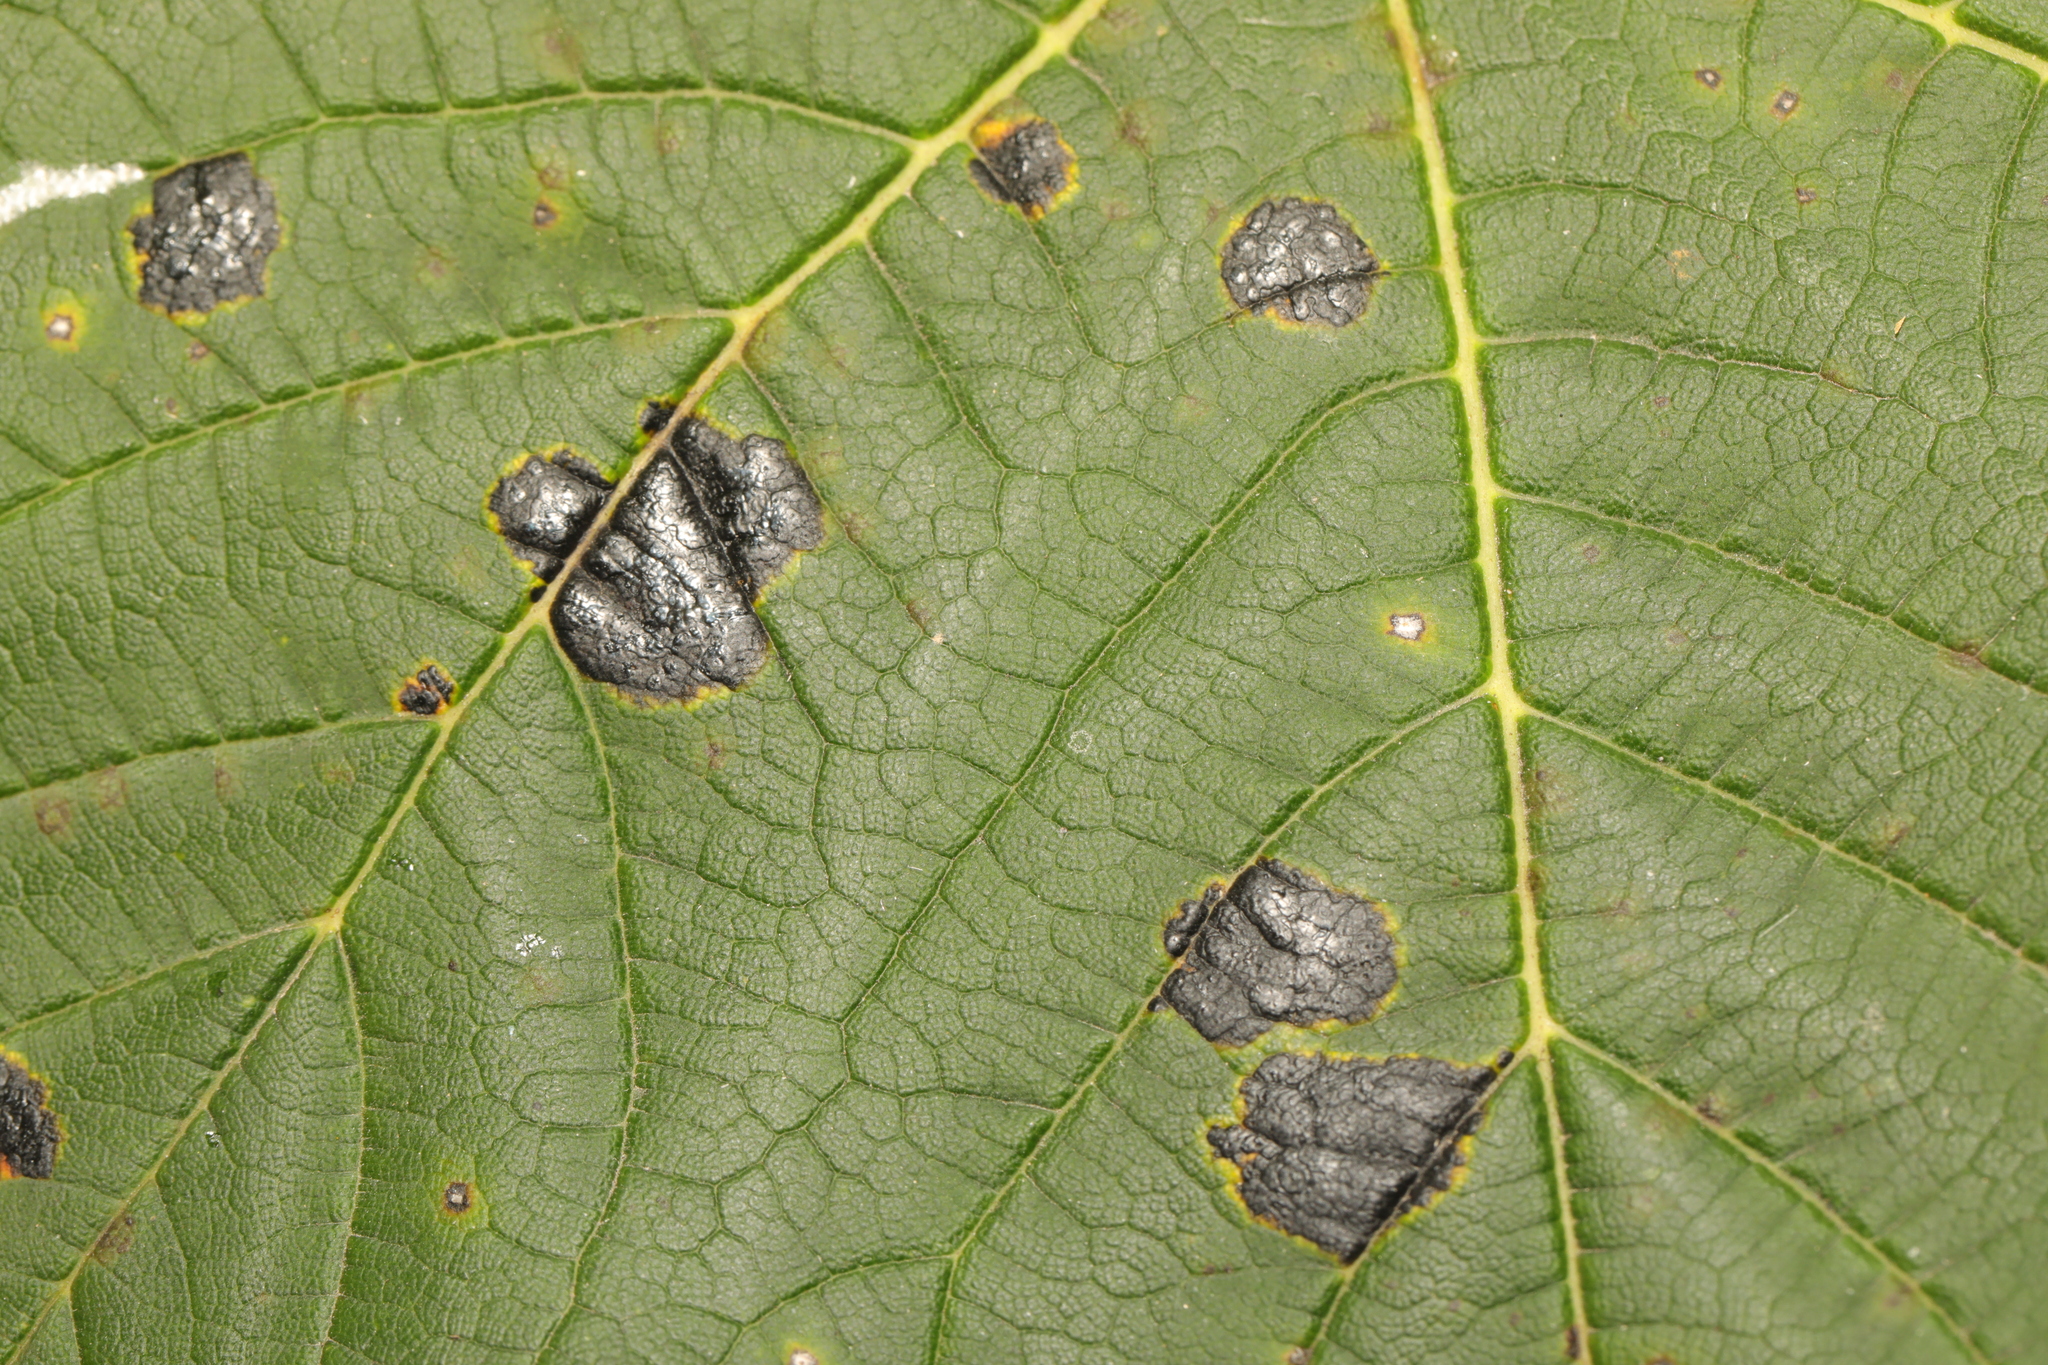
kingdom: Fungi
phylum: Ascomycota
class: Leotiomycetes
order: Rhytismatales
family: Rhytismataceae
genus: Rhytisma
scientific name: Rhytisma acerinum
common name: European tar spot
